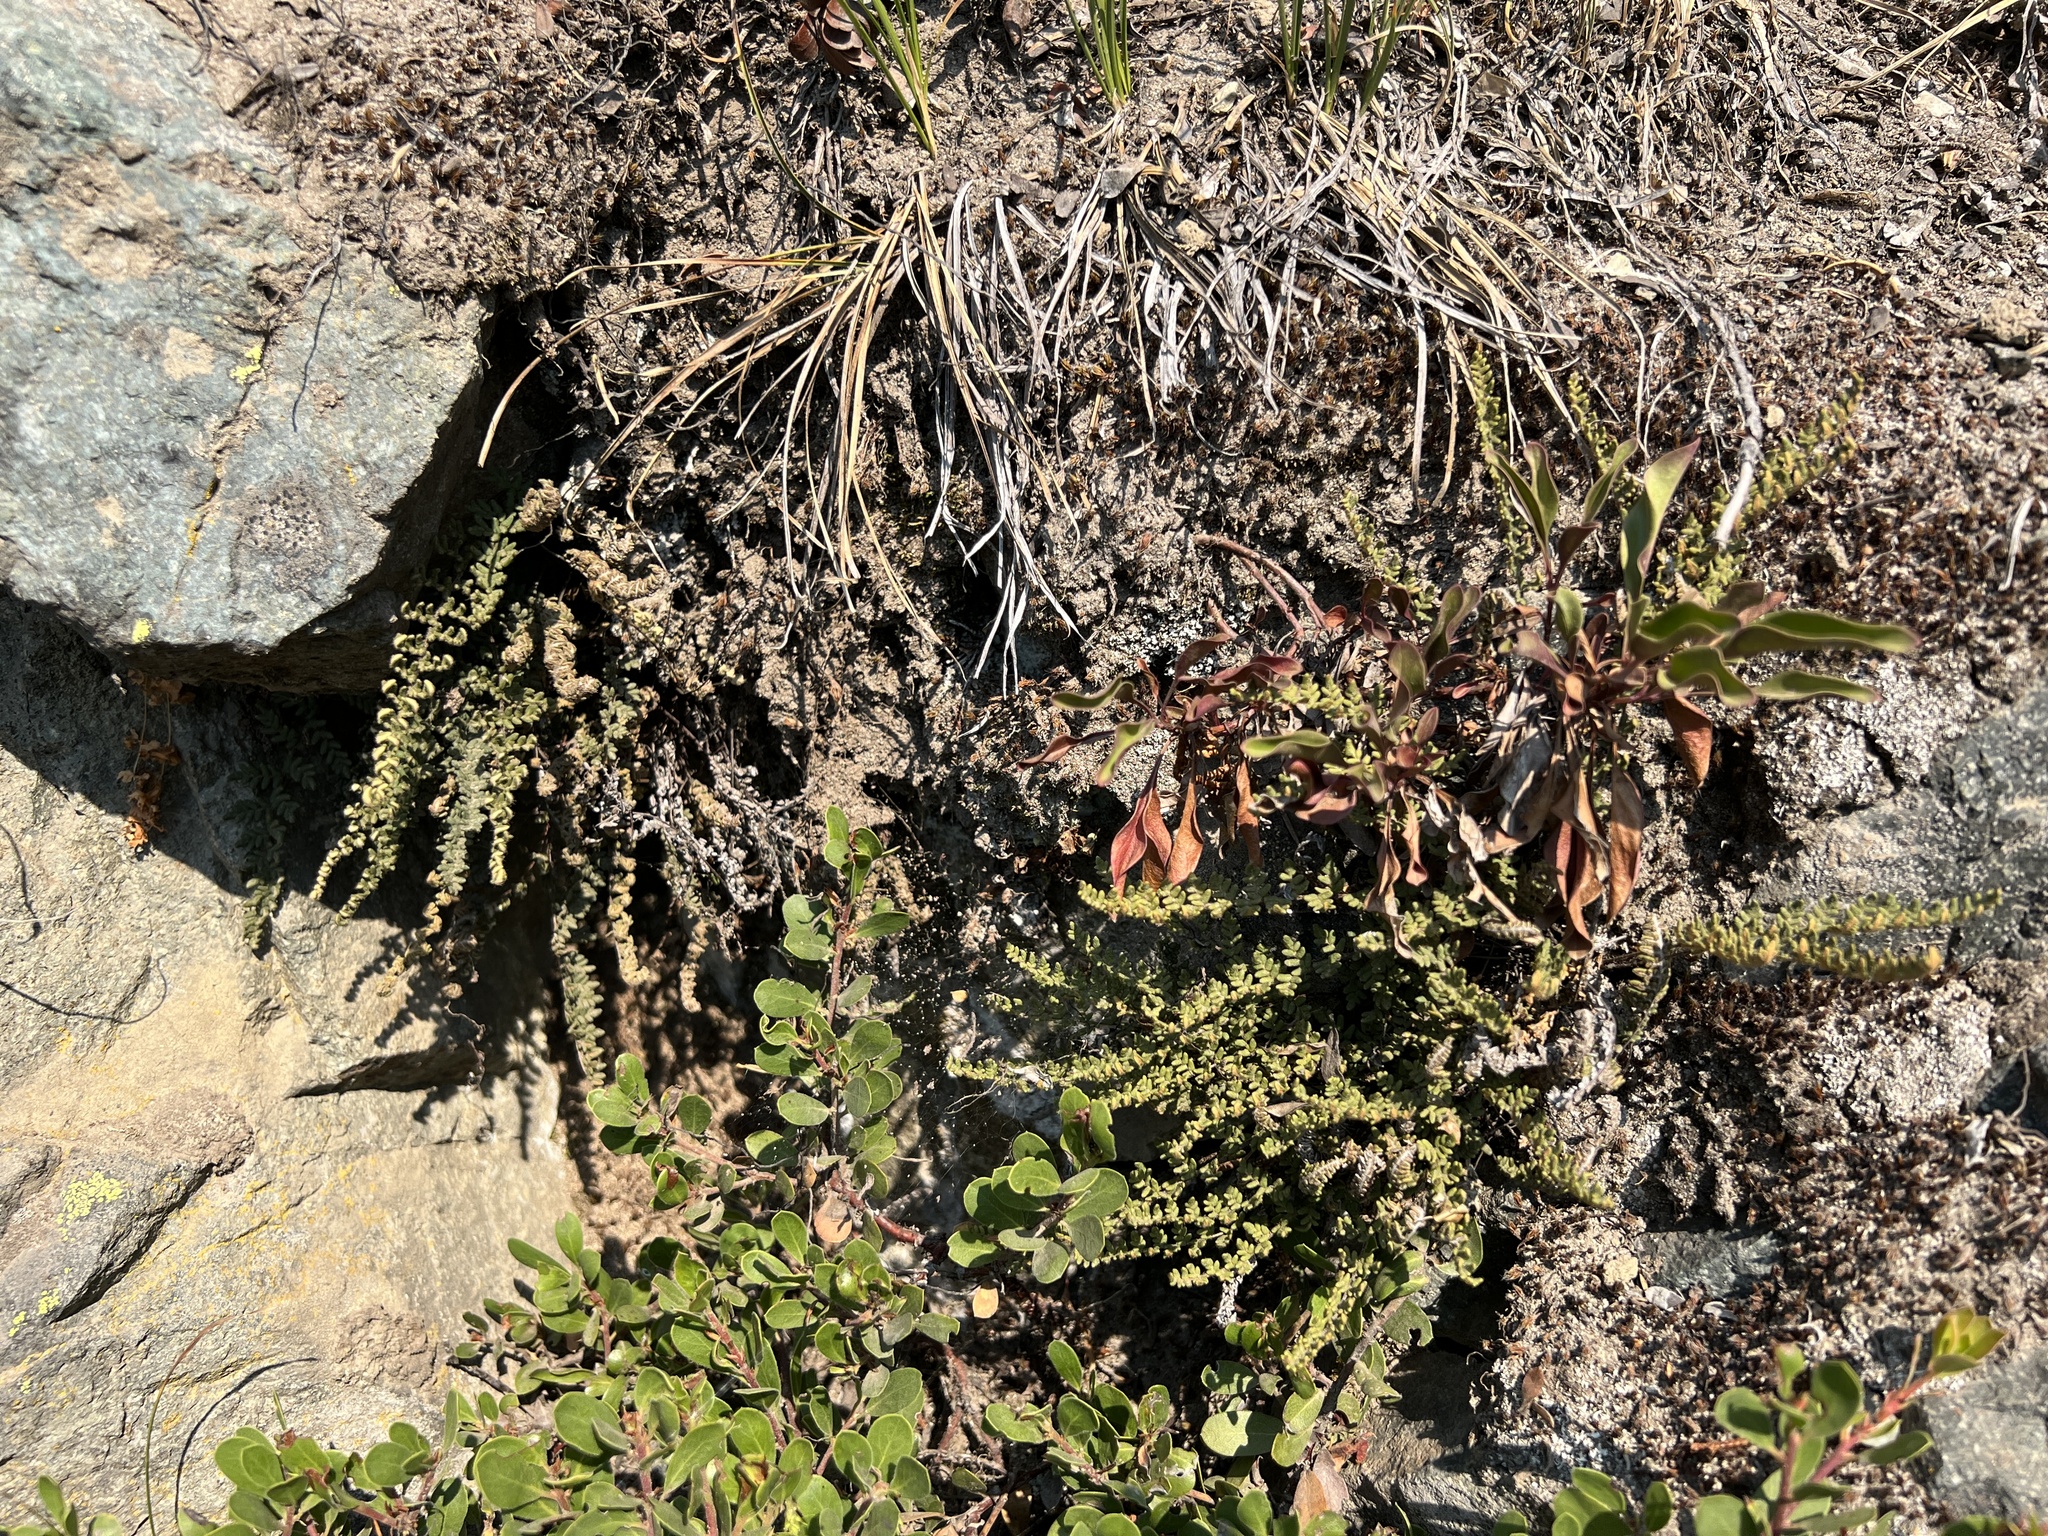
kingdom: Plantae
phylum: Tracheophyta
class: Polypodiopsida
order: Polypodiales
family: Pteridaceae
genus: Myriopteris
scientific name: Myriopteris gracillima
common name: Lace fern
